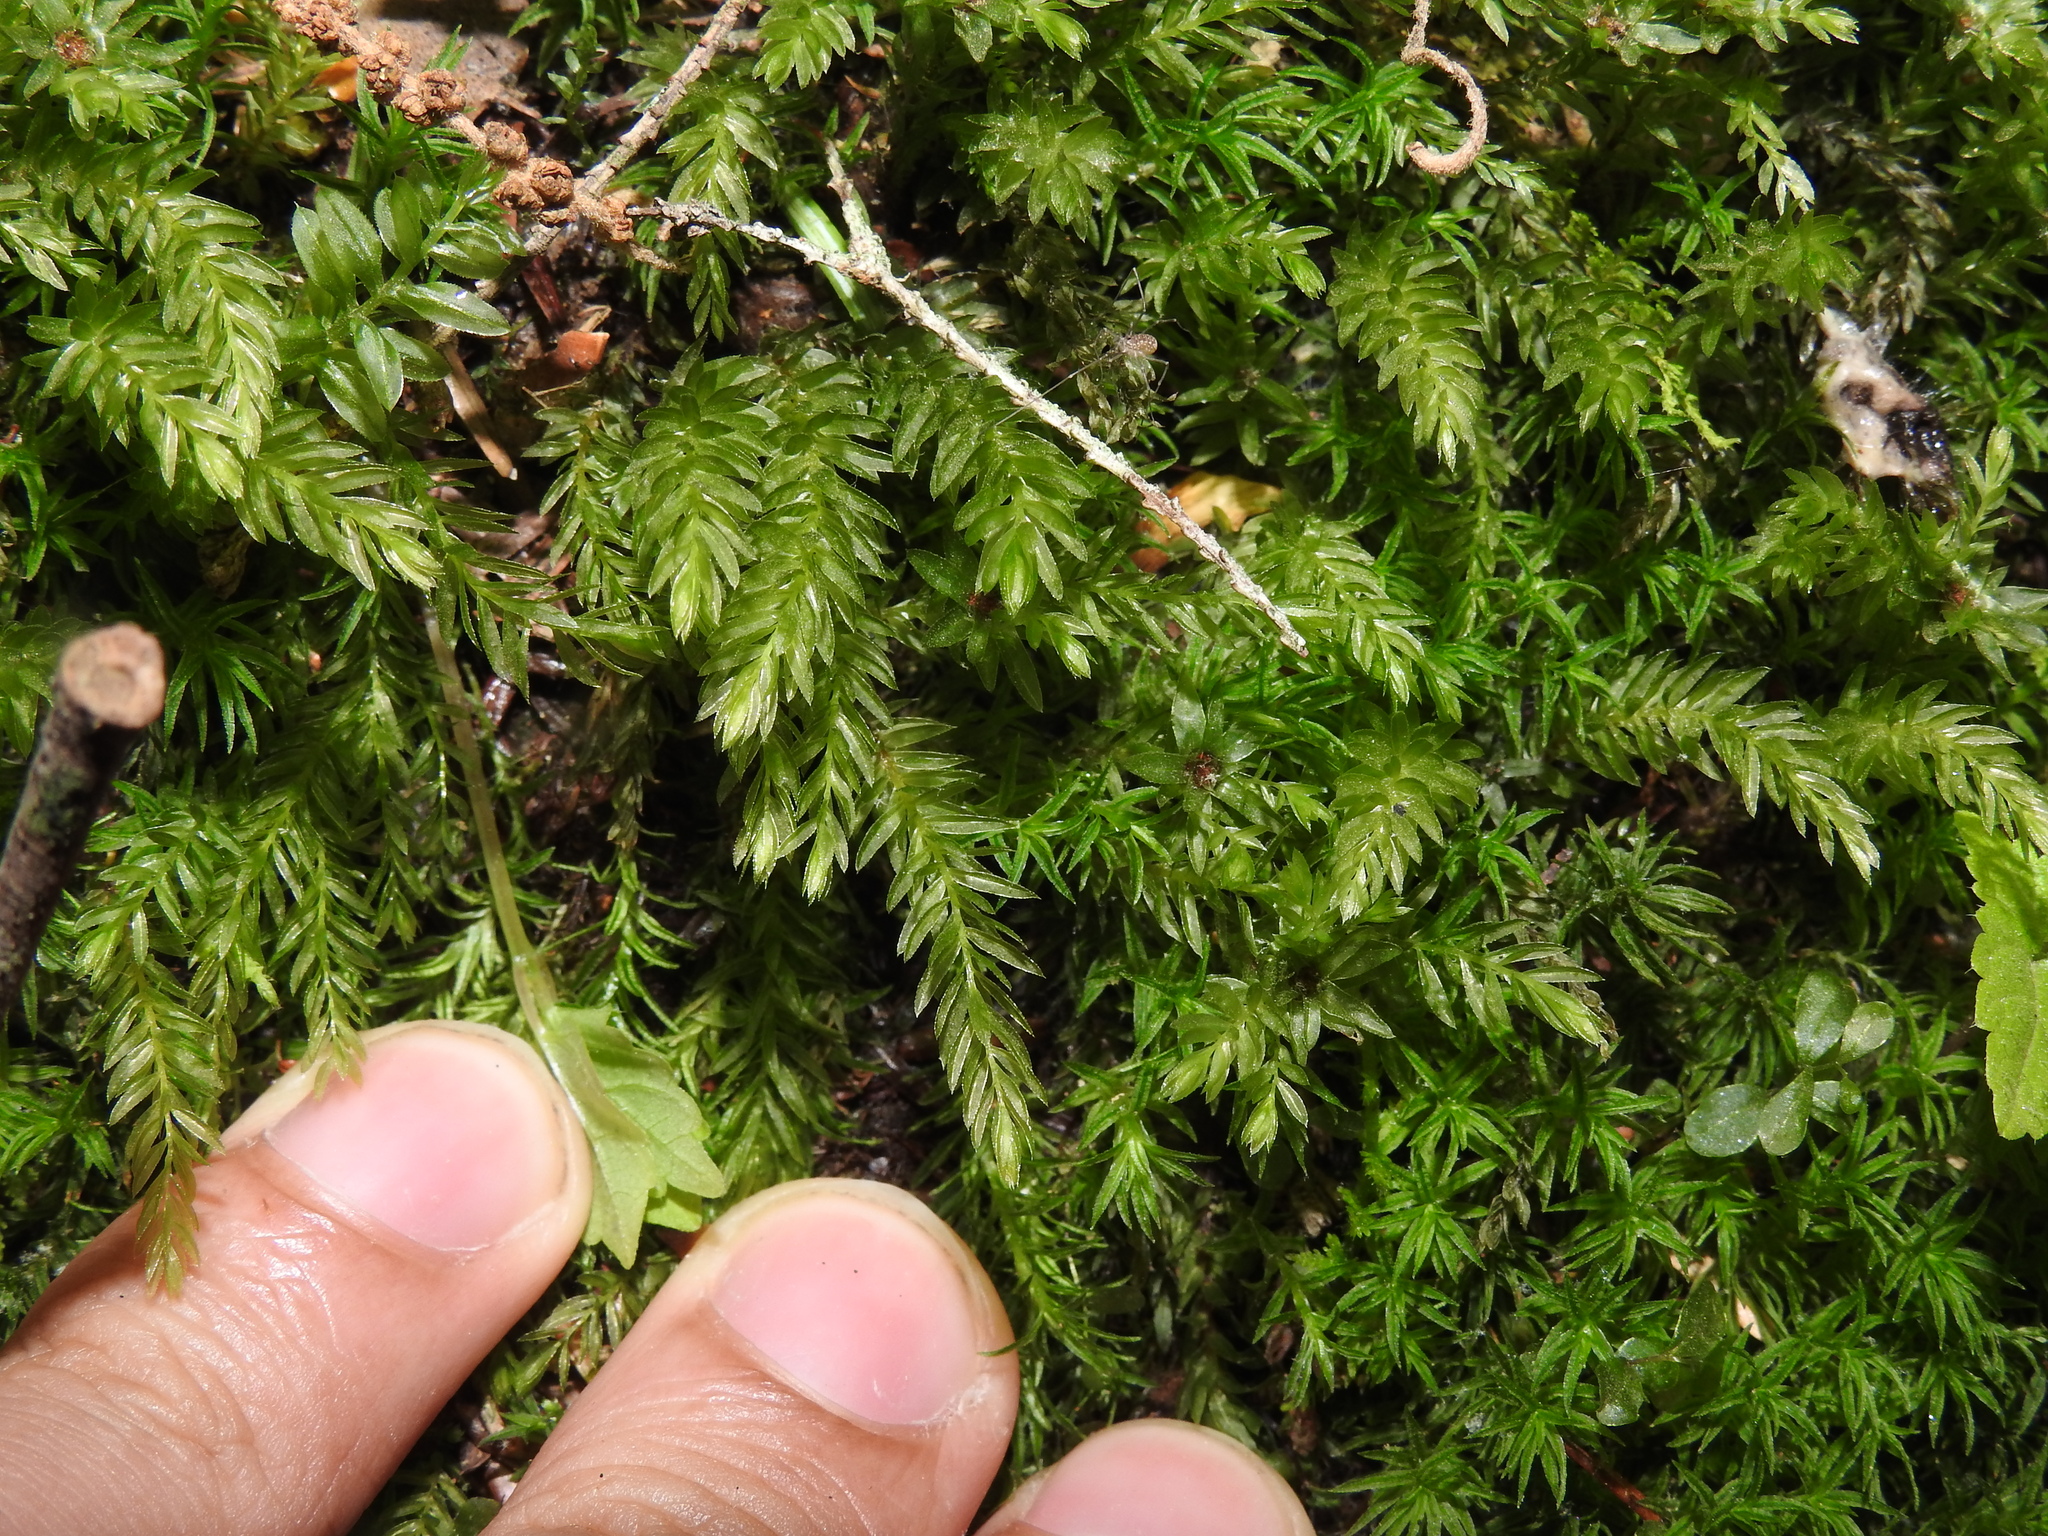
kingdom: Plantae
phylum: Bryophyta
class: Bryopsida
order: Bryales
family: Mniaceae
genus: Mnium
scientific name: Mnium hornum
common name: Swan's-neck leafy moss
